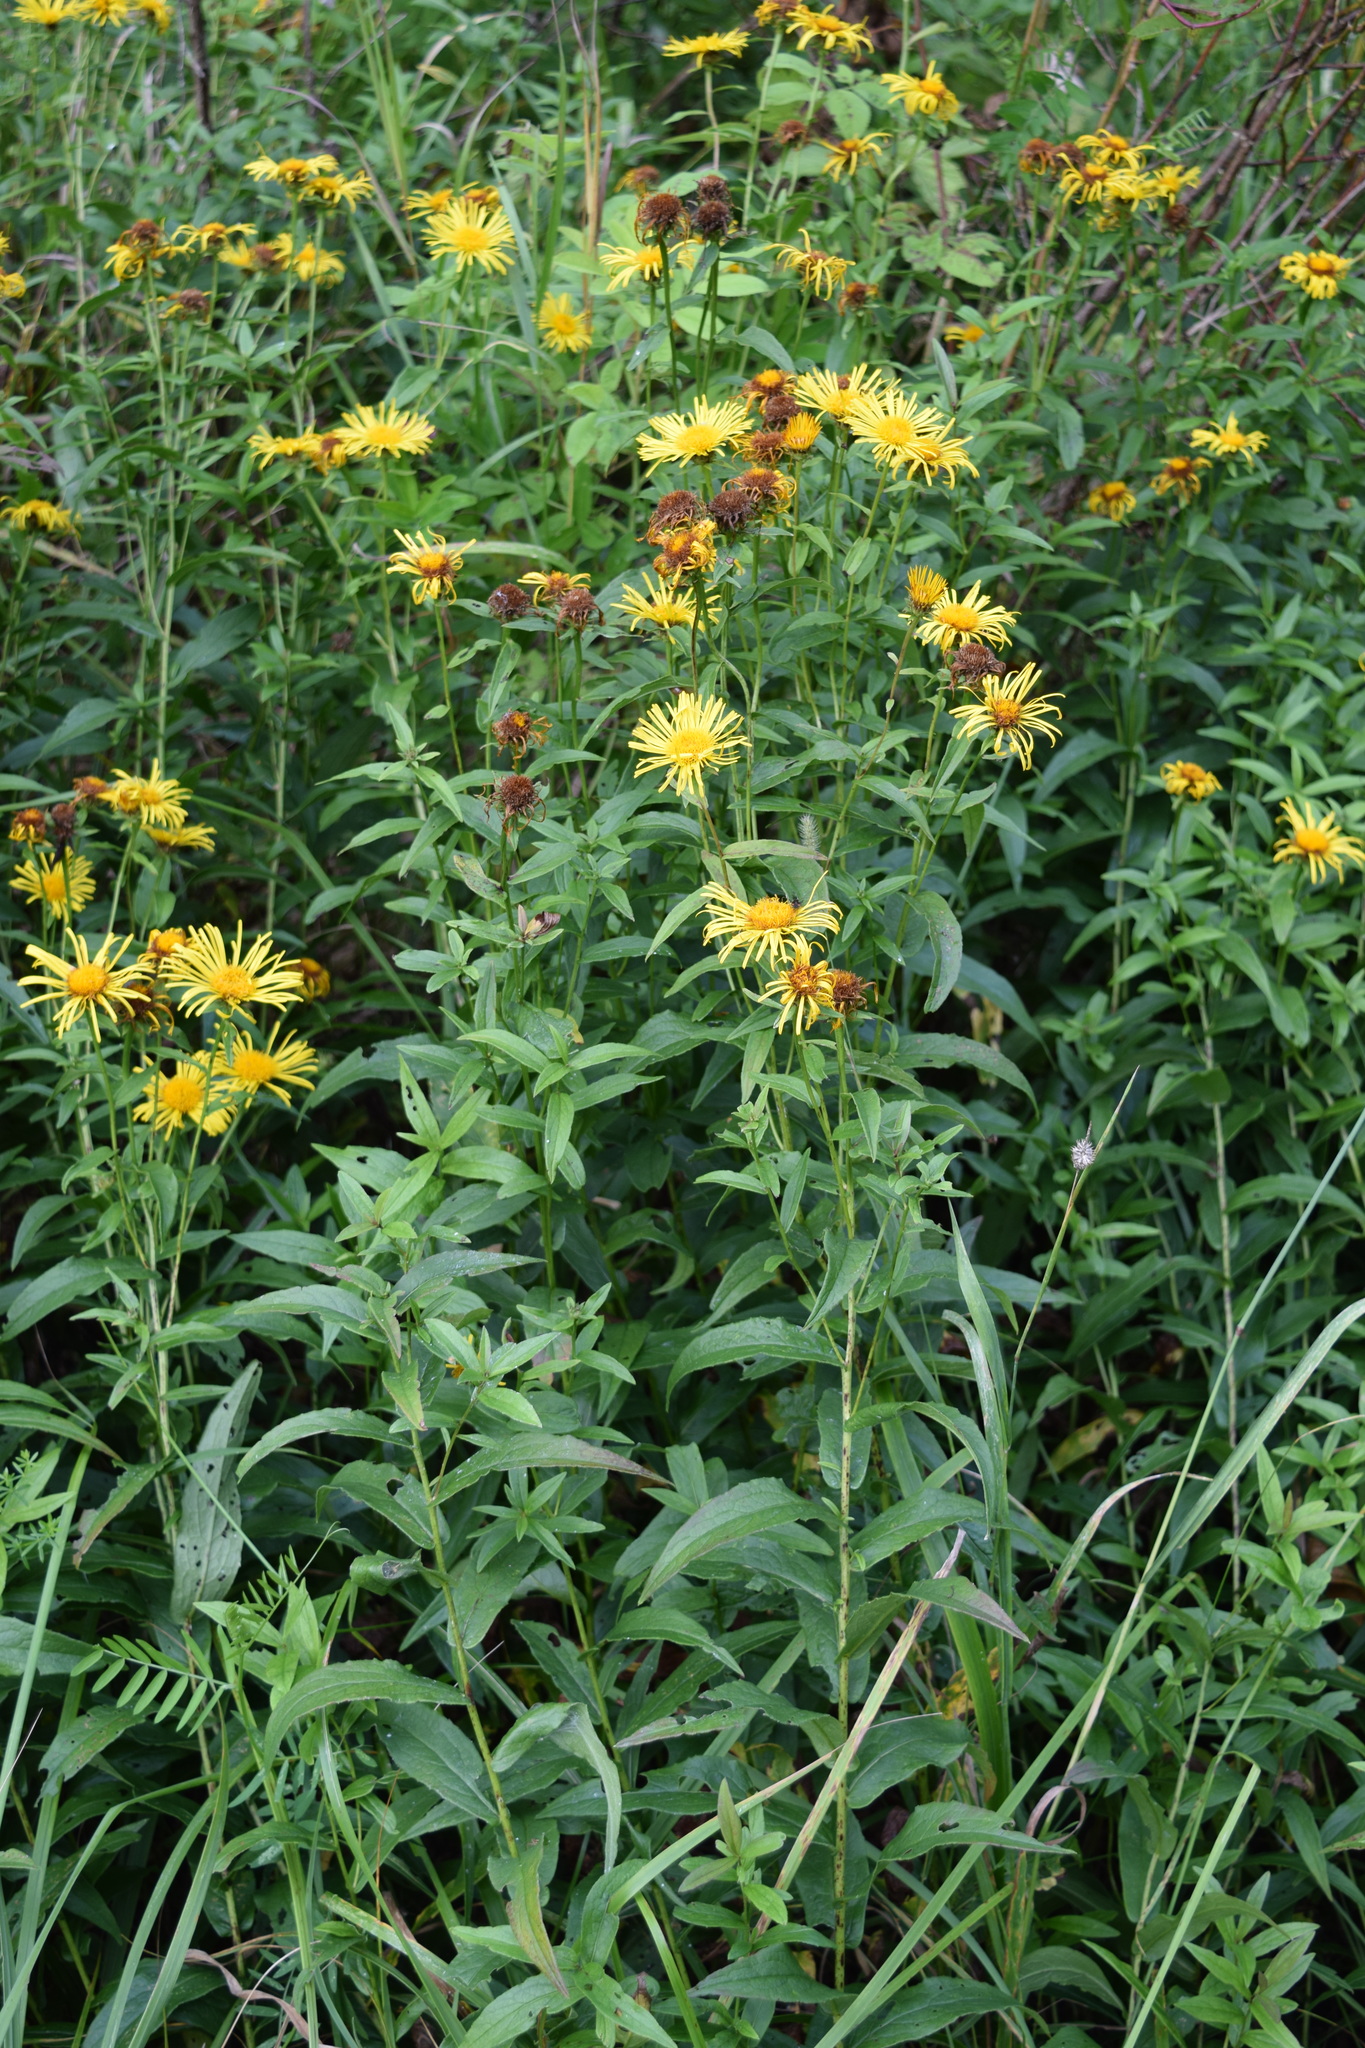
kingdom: Plantae
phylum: Tracheophyta
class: Magnoliopsida
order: Asterales
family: Asteraceae
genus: Pentanema
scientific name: Pentanema salicinum
